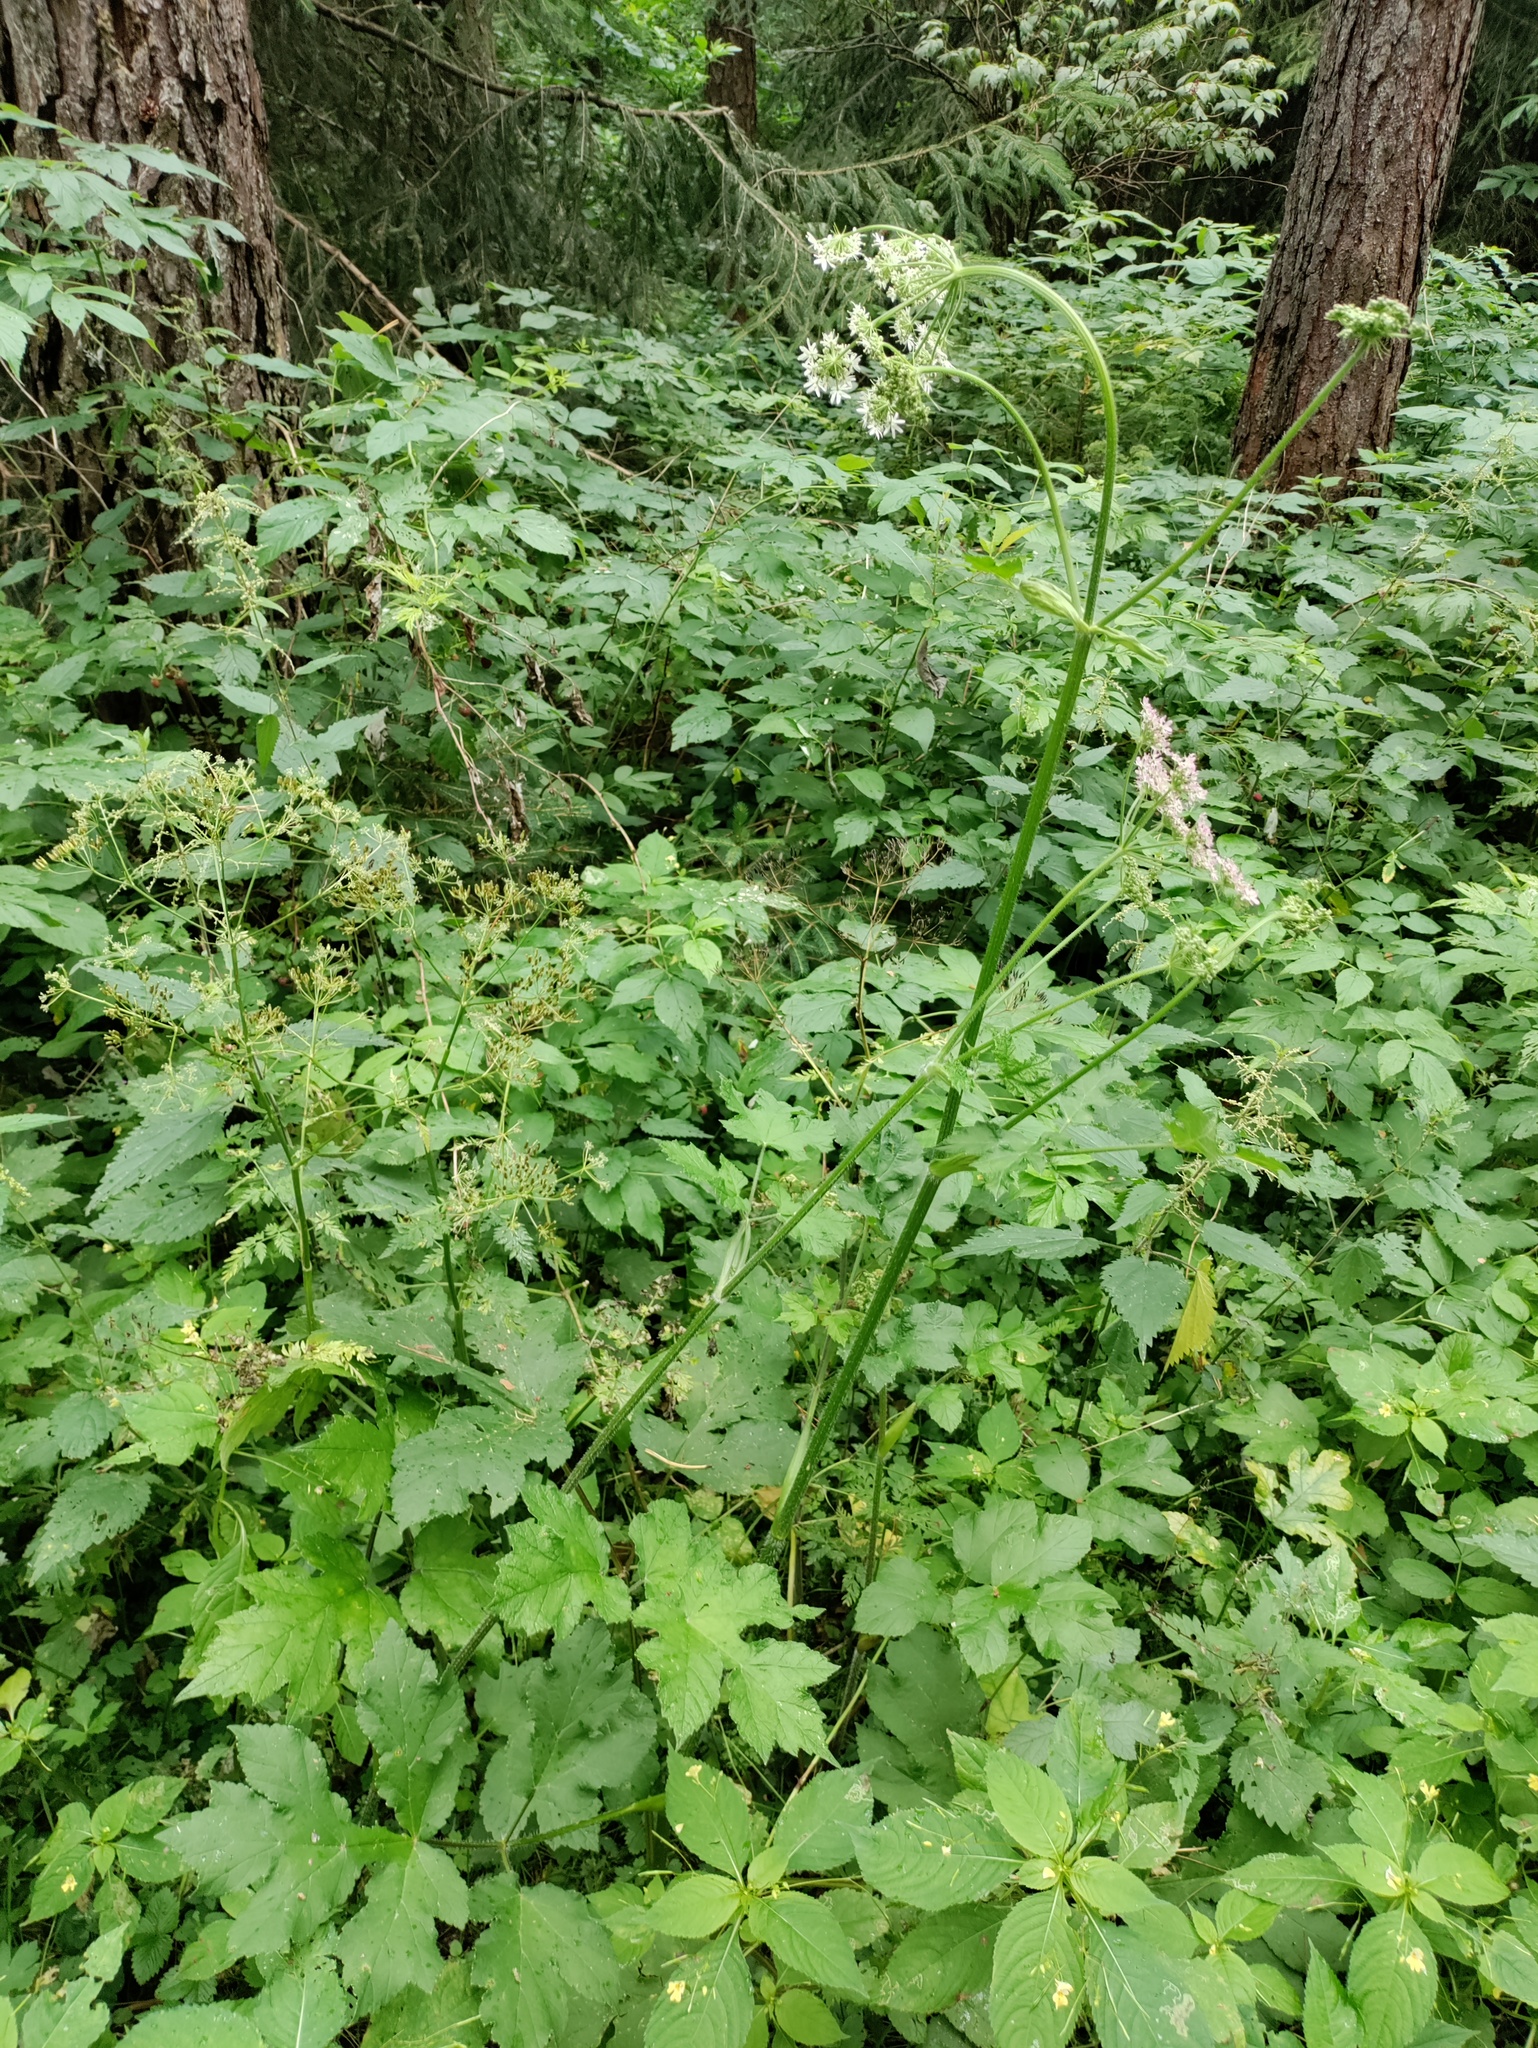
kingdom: Plantae
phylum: Tracheophyta
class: Magnoliopsida
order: Apiales
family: Apiaceae
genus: Heracleum
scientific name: Heracleum sphondylium
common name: Hogweed
